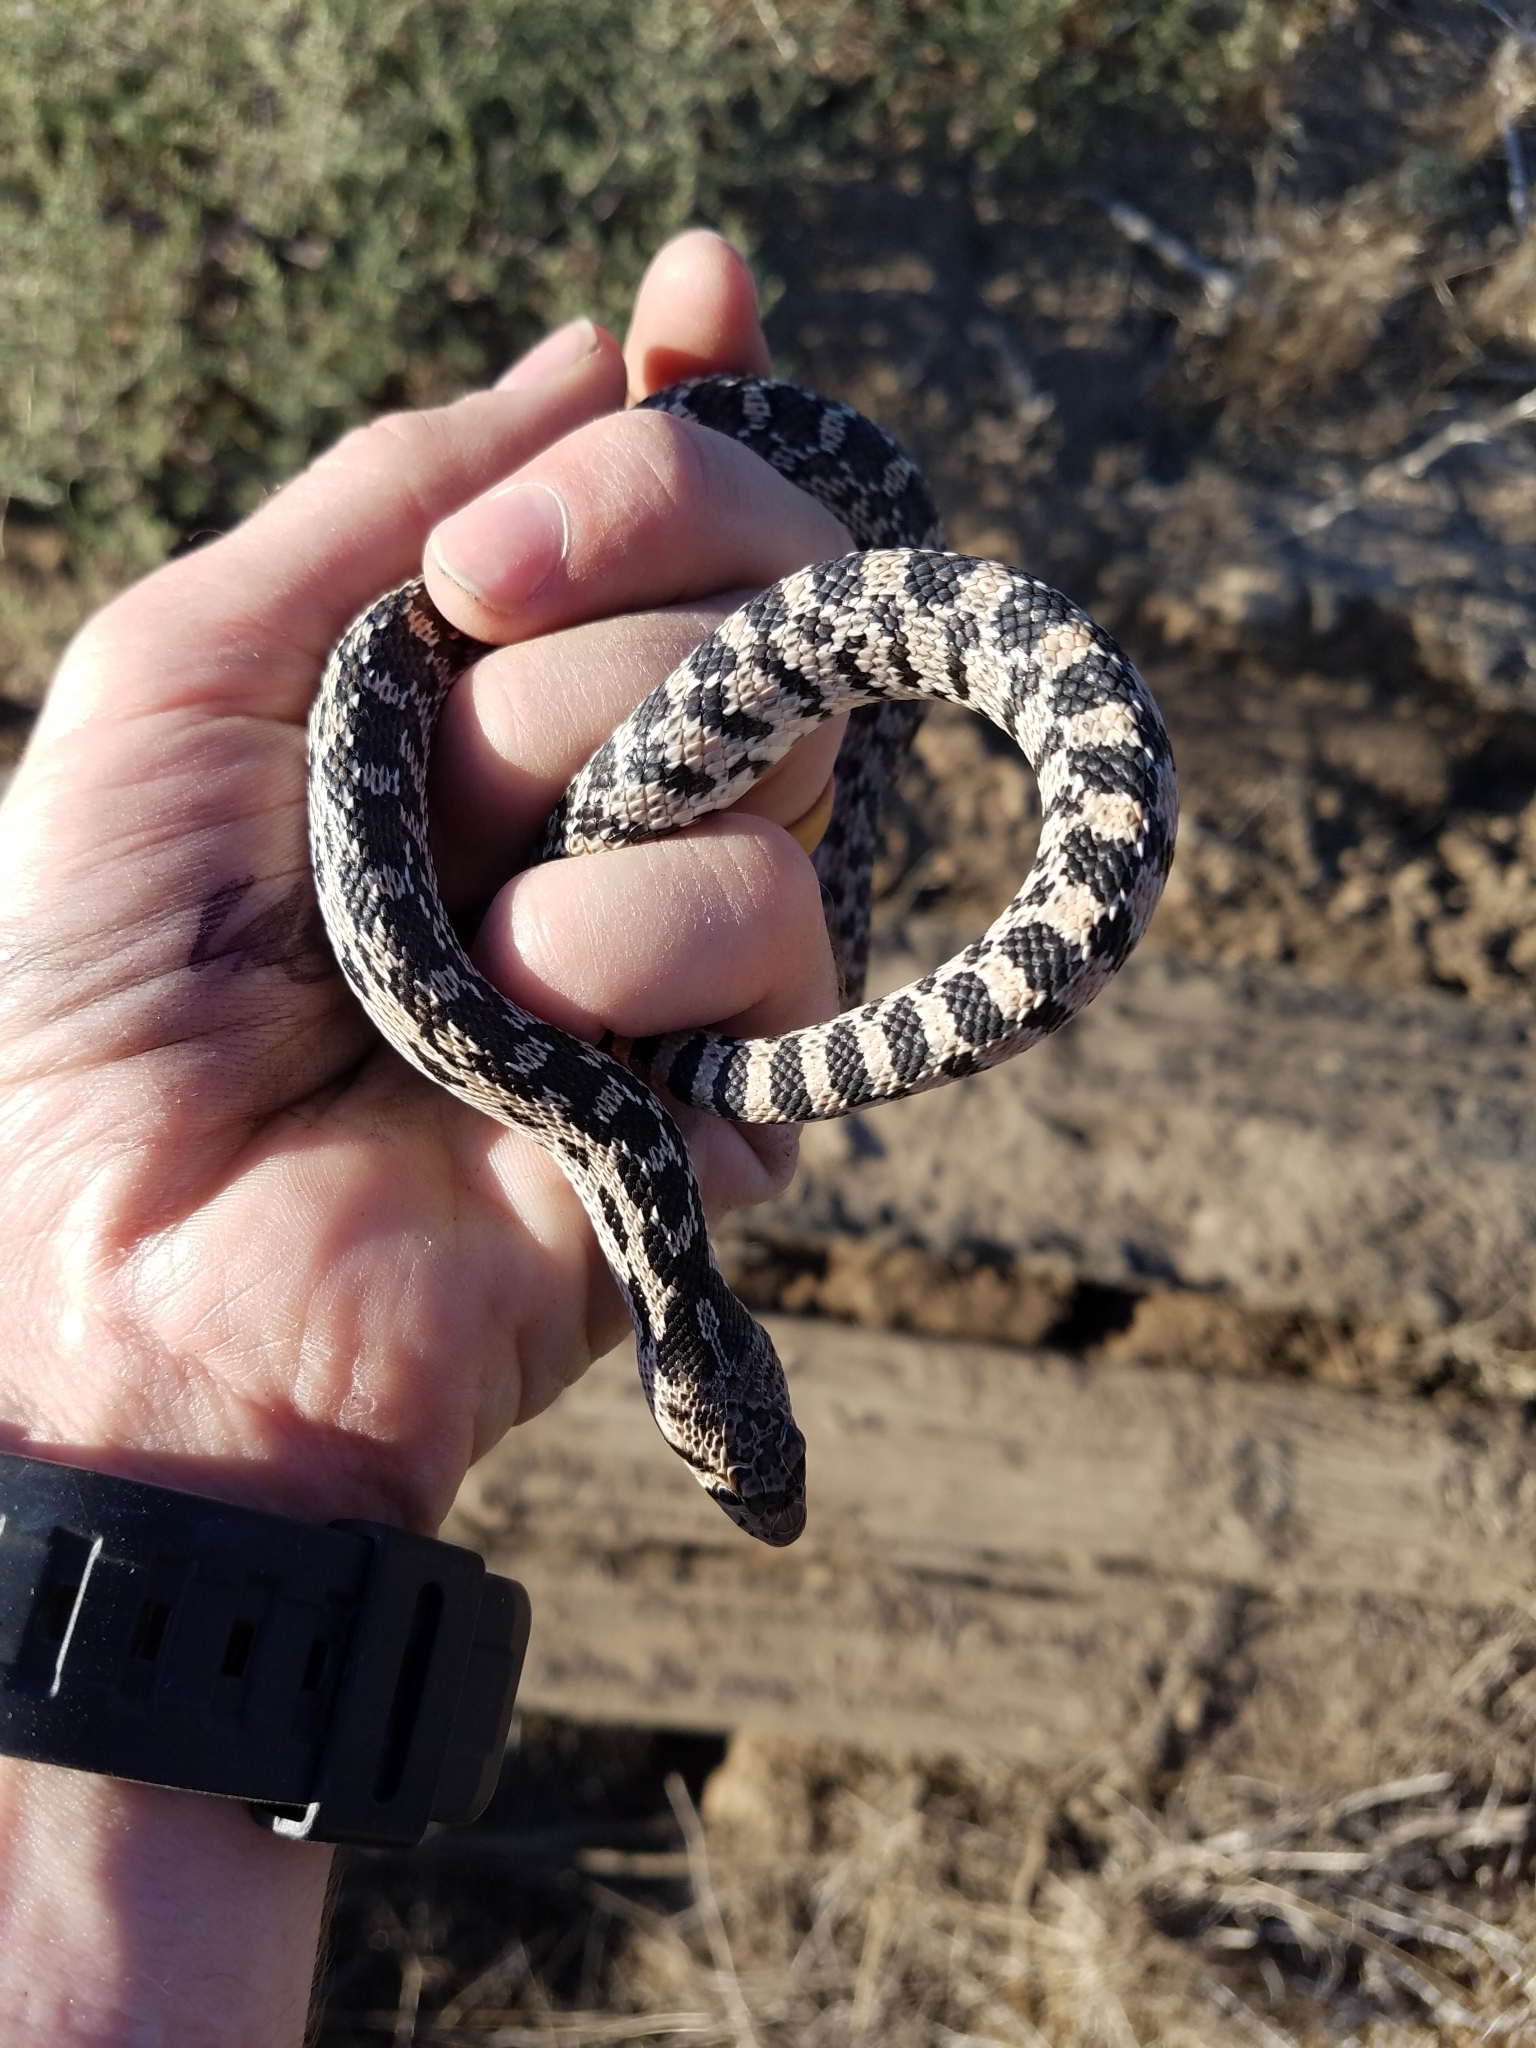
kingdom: Animalia
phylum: Chordata
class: Squamata
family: Colubridae
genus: Pituophis
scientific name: Pituophis catenifer
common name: Gopher snake
